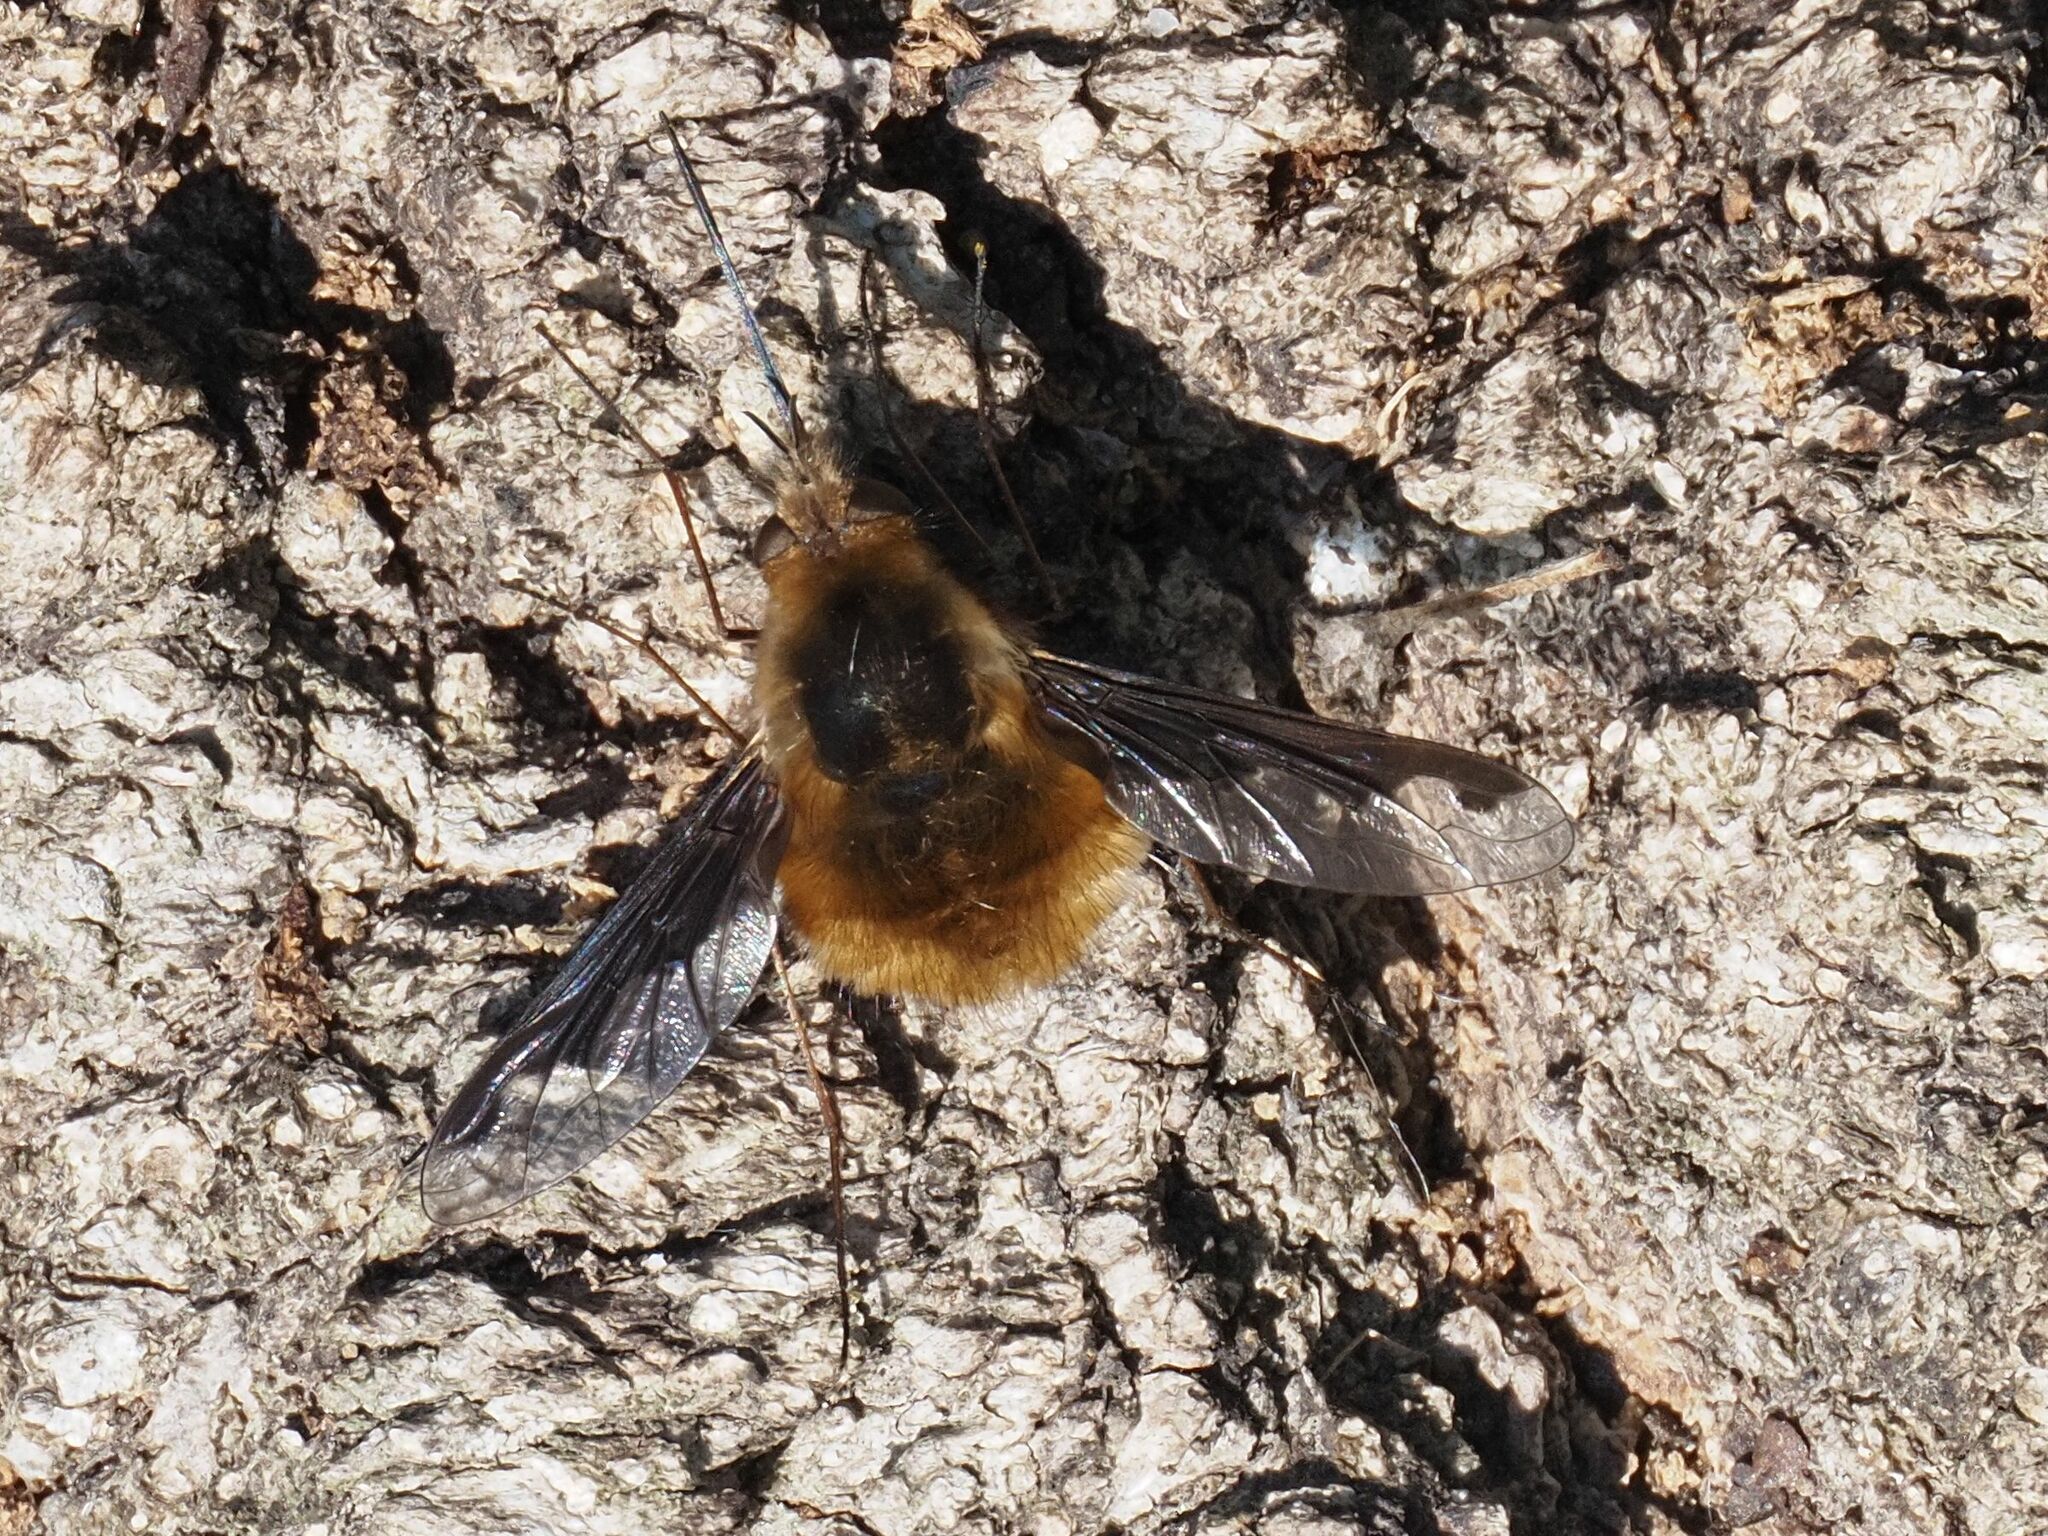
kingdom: Animalia
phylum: Arthropoda
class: Insecta
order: Diptera
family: Bombyliidae
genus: Bombylius
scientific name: Bombylius major
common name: Bee fly
